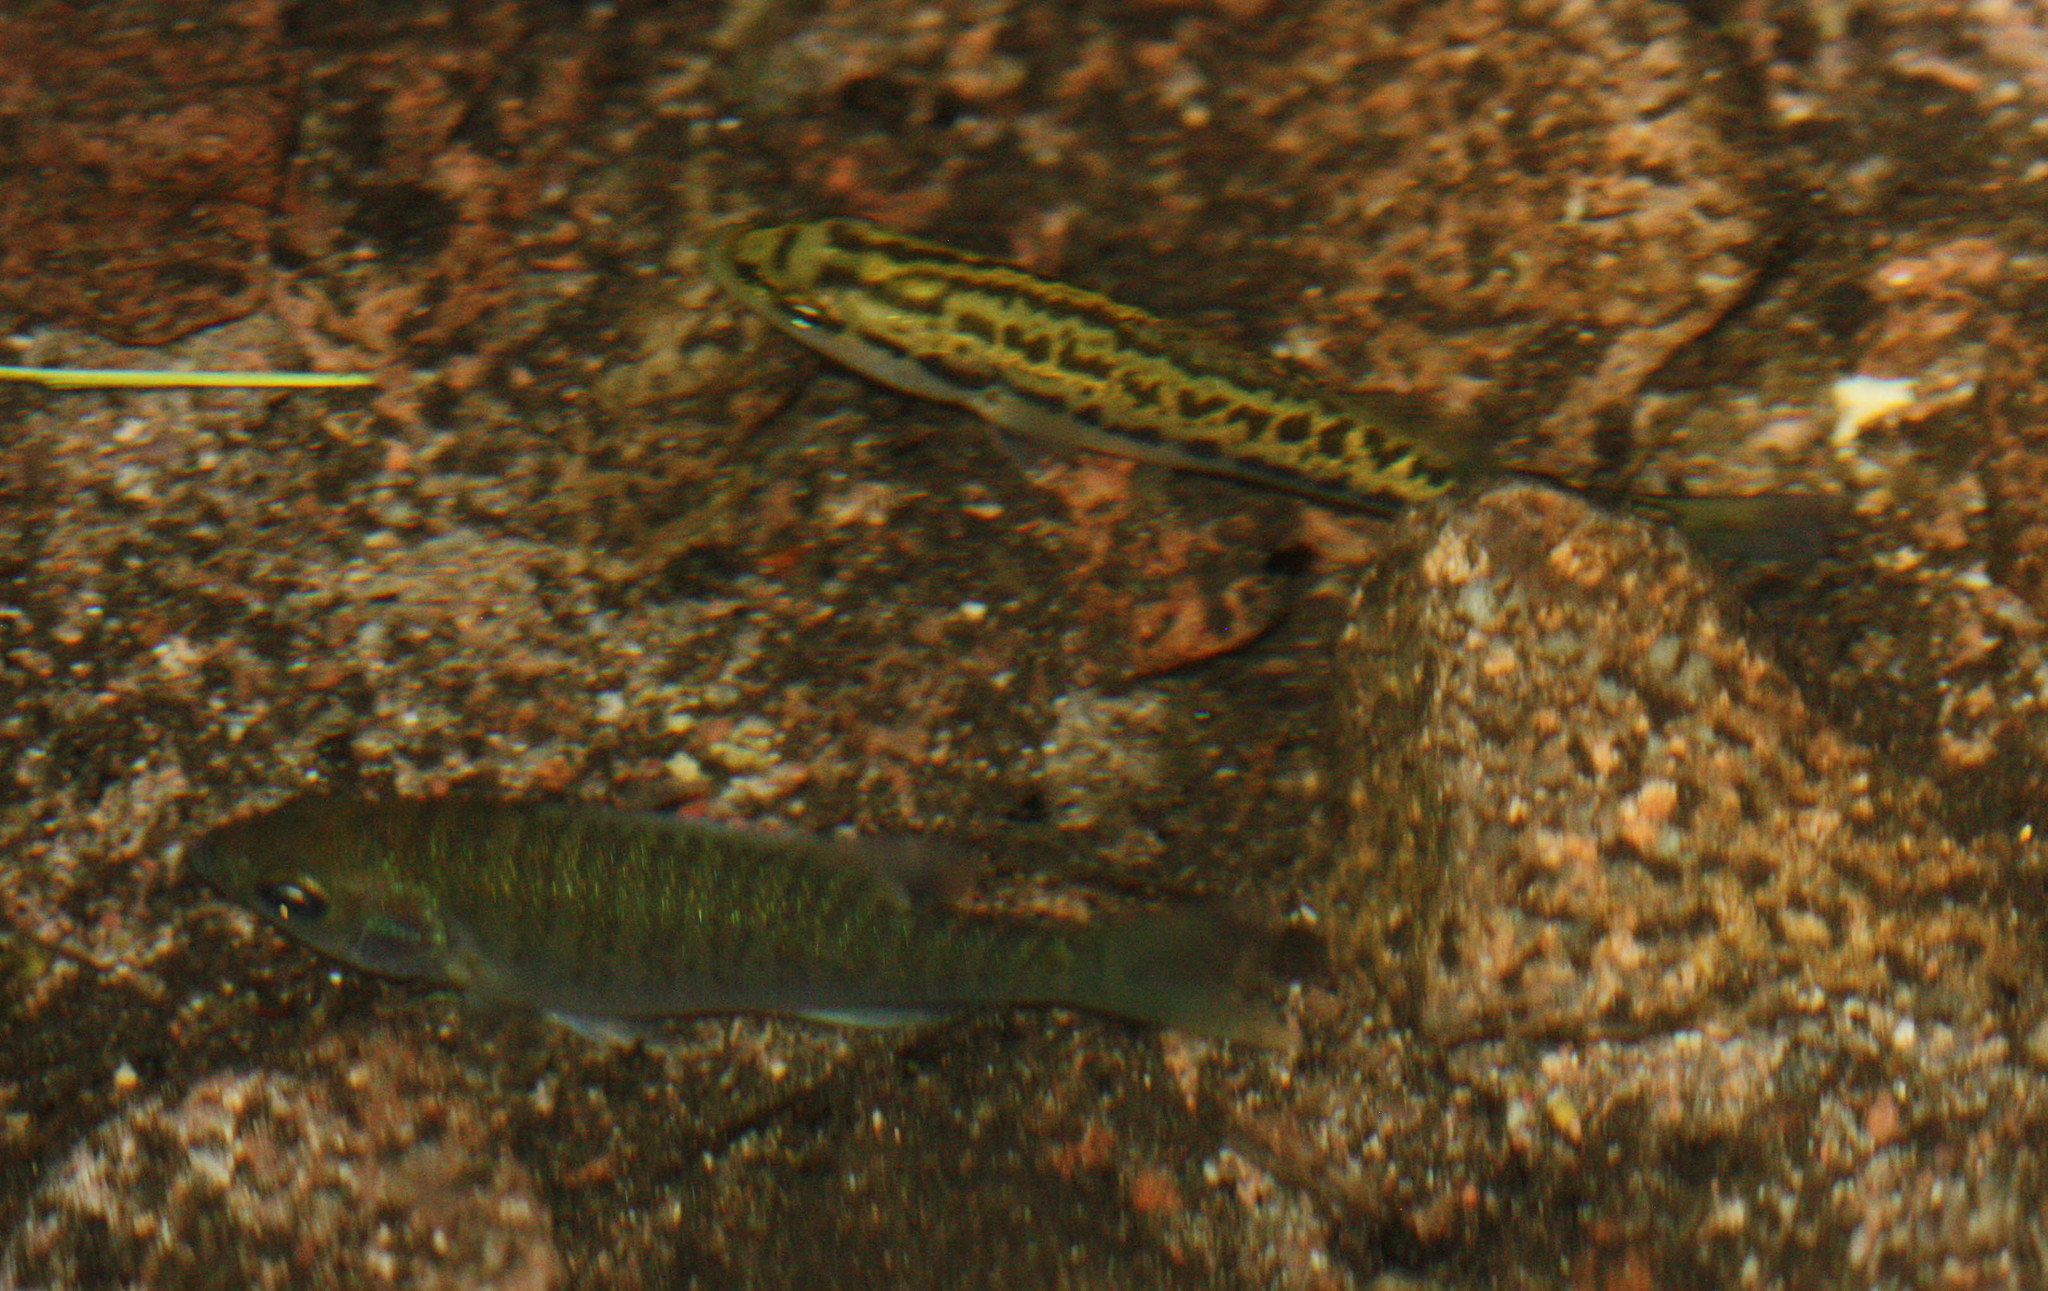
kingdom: Animalia
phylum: Chordata
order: Perciformes
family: Centrarchidae
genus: Lepomis
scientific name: Lepomis macrochirus
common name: Bluegill
